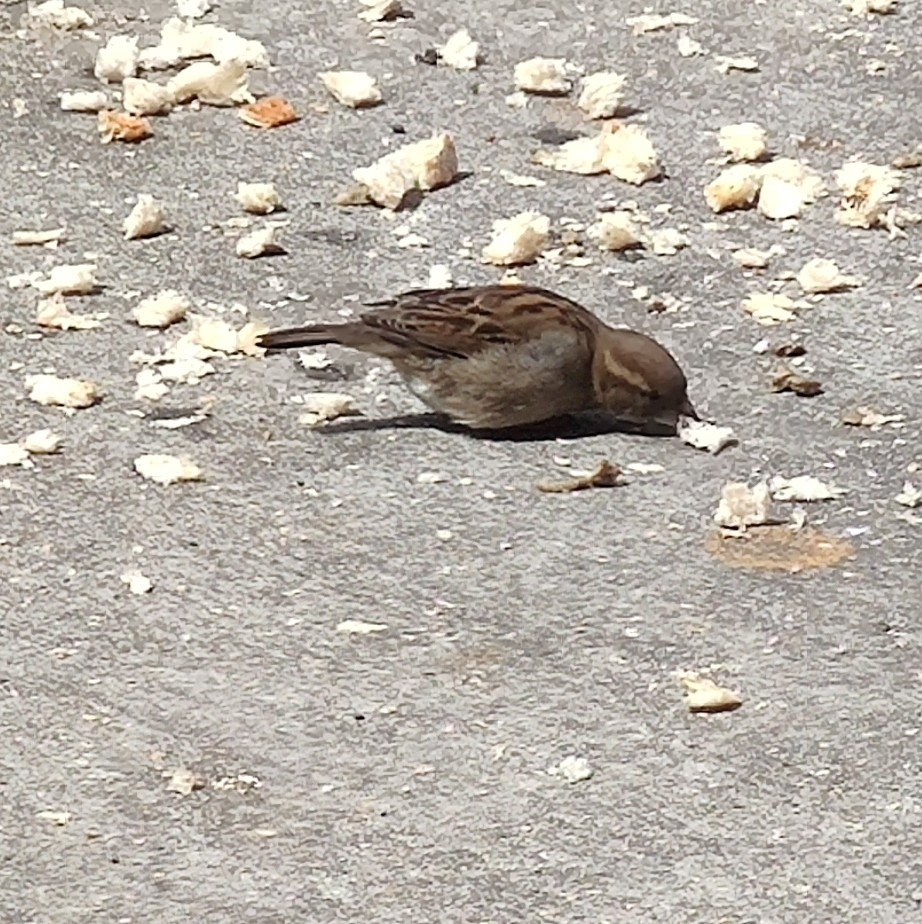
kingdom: Animalia
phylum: Chordata
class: Aves
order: Passeriformes
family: Passeridae
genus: Passer
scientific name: Passer domesticus
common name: House sparrow
